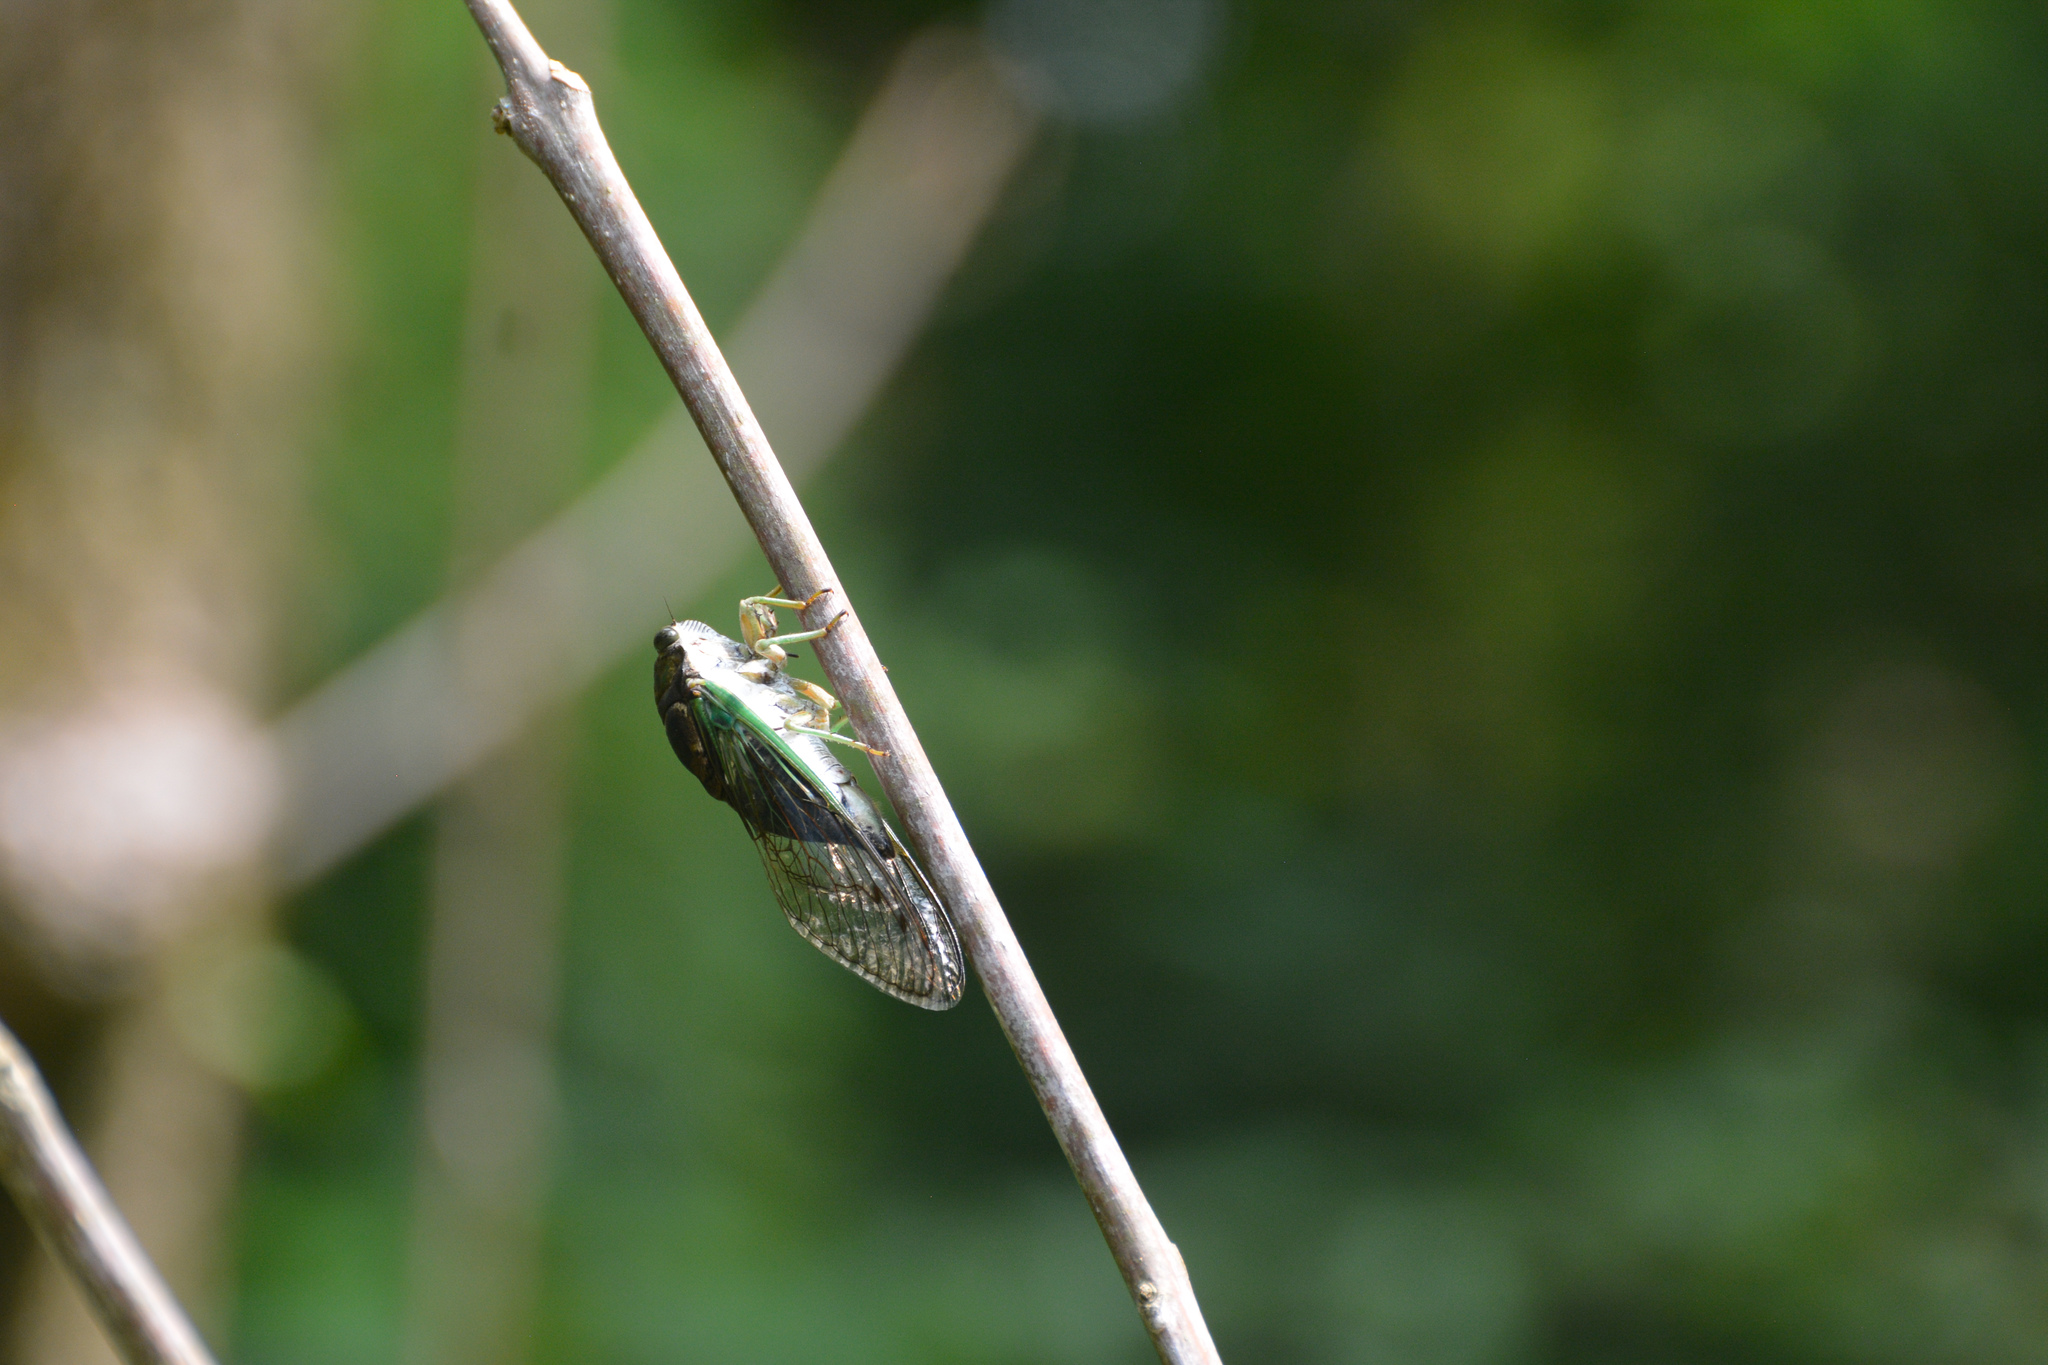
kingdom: Animalia
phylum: Arthropoda
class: Insecta
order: Hemiptera
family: Cicadidae
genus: Neotibicen
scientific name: Neotibicen tibicen
